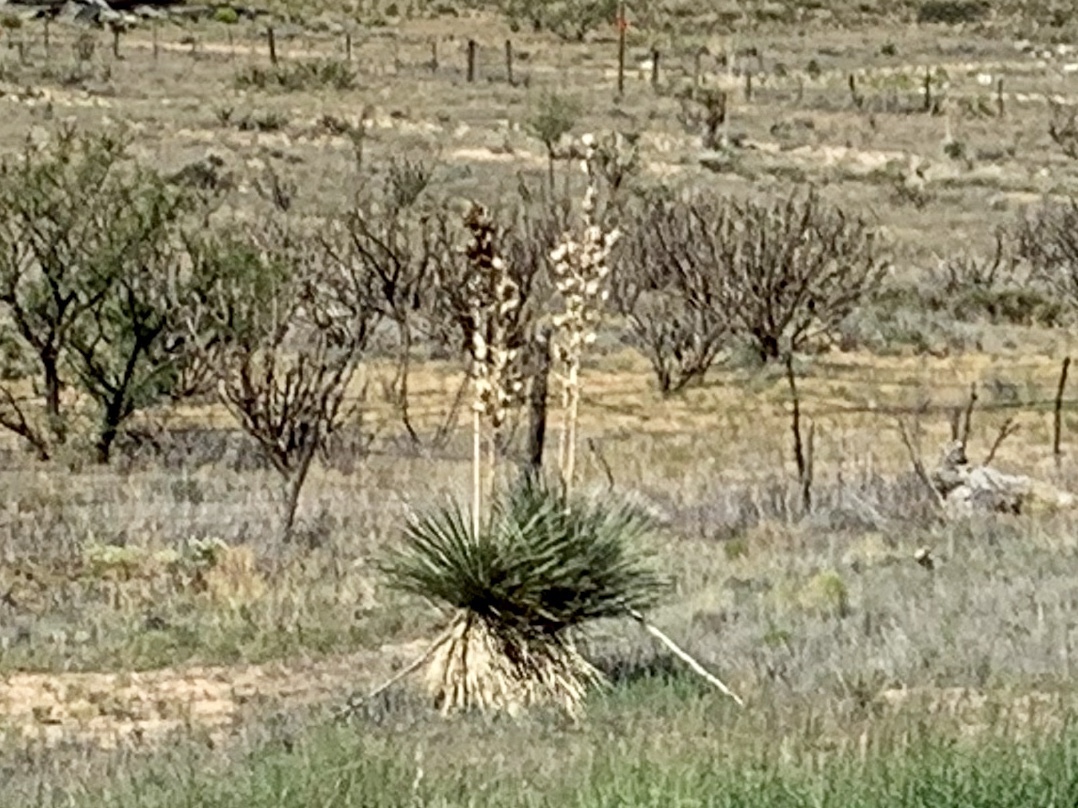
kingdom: Plantae
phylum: Tracheophyta
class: Liliopsida
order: Asparagales
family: Asparagaceae
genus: Yucca
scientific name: Yucca elata
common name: Palmella
